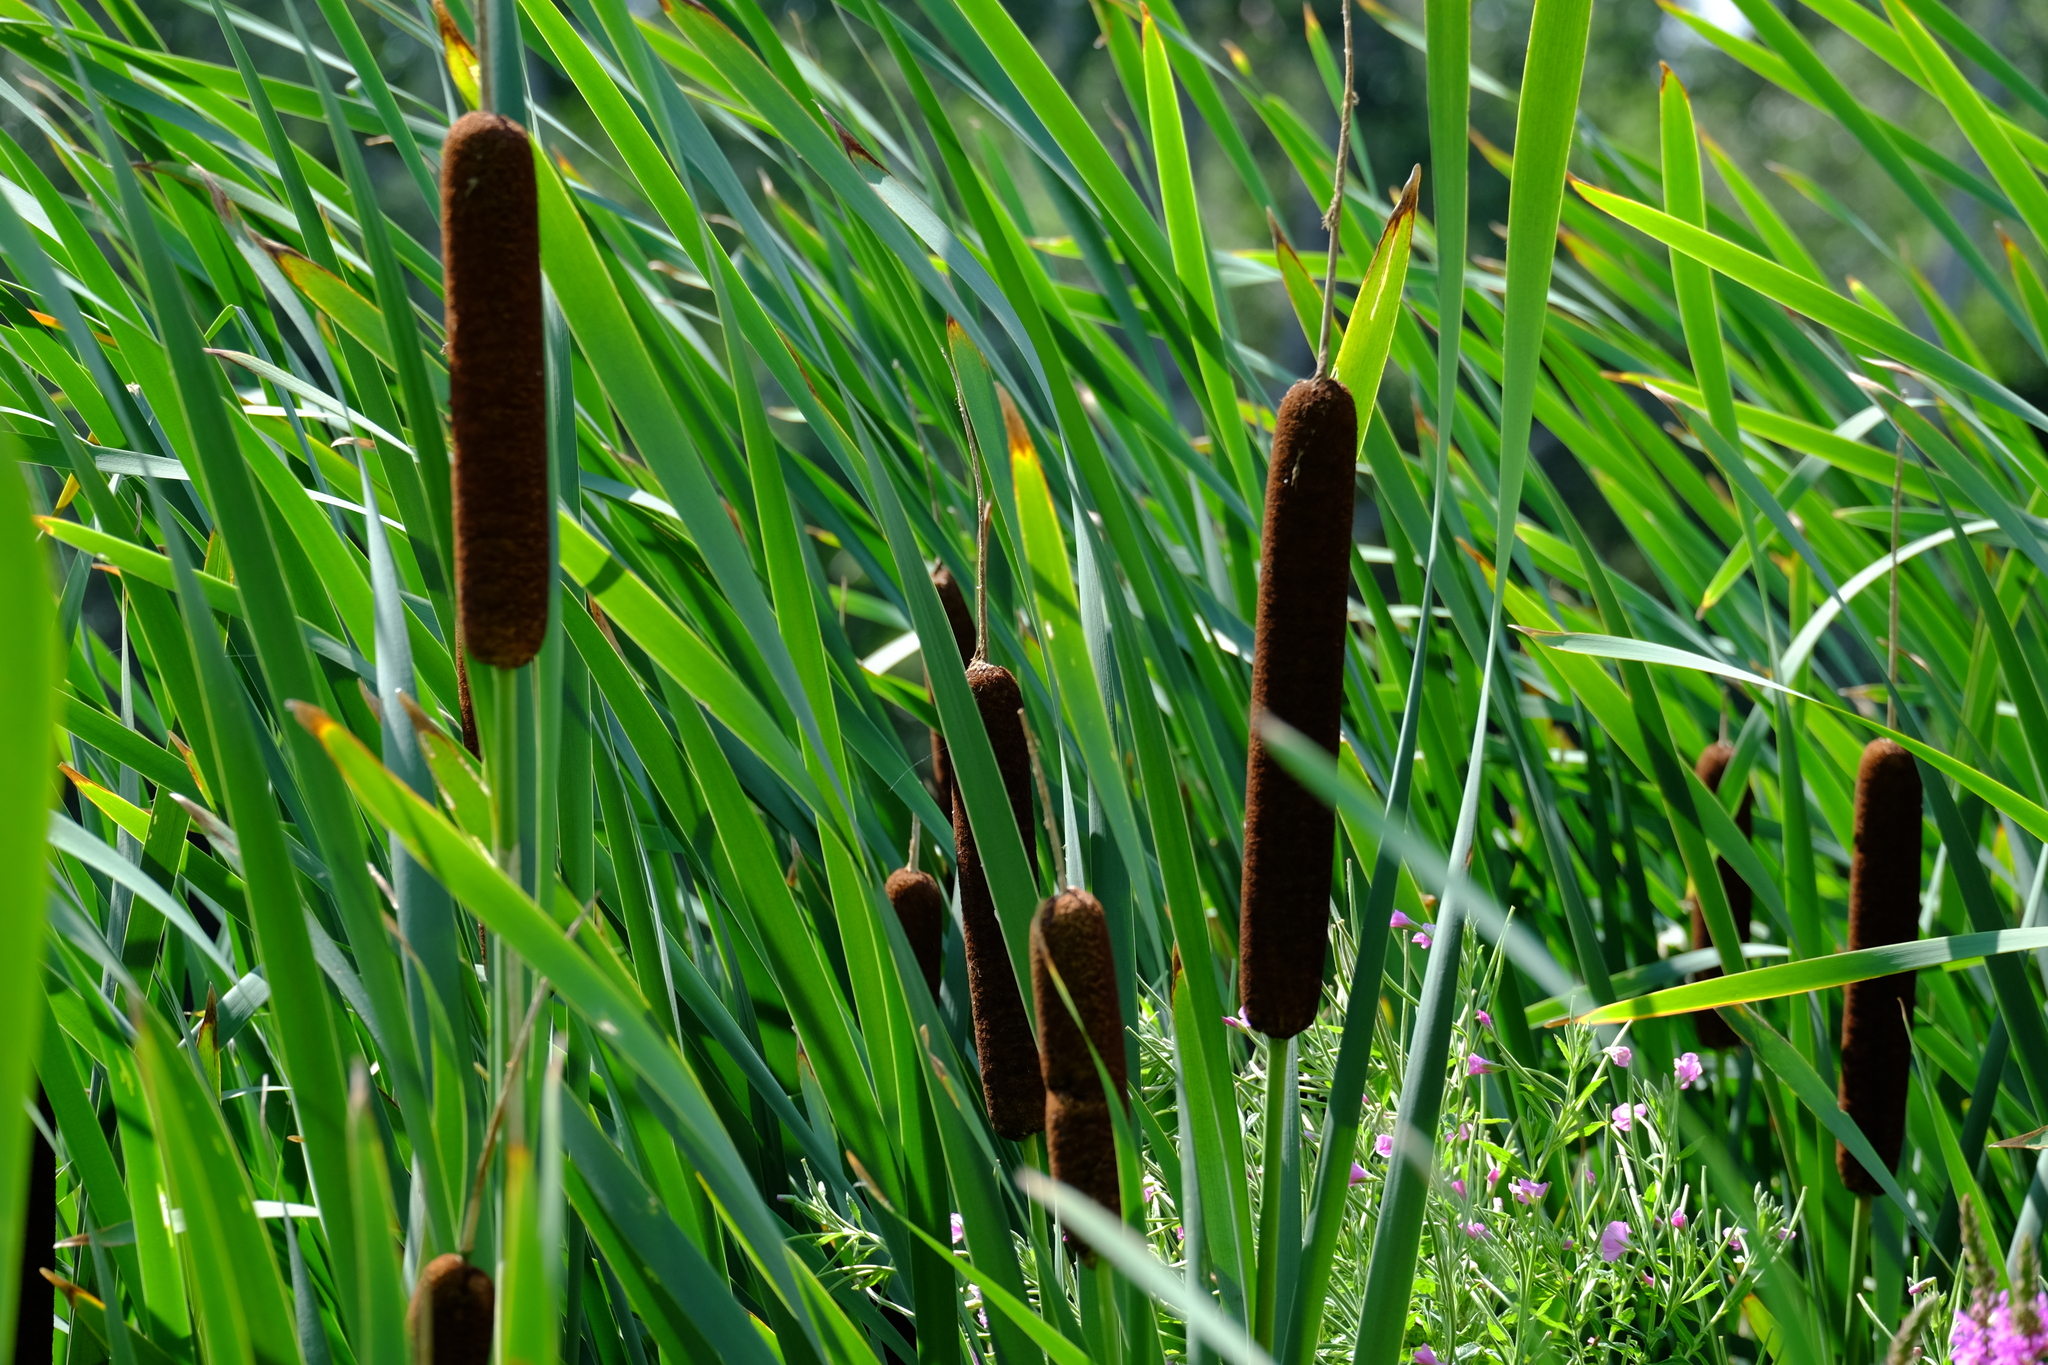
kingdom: Plantae
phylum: Tracheophyta
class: Liliopsida
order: Poales
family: Typhaceae
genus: Typha
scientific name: Typha latifolia
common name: Broadleaf cattail
